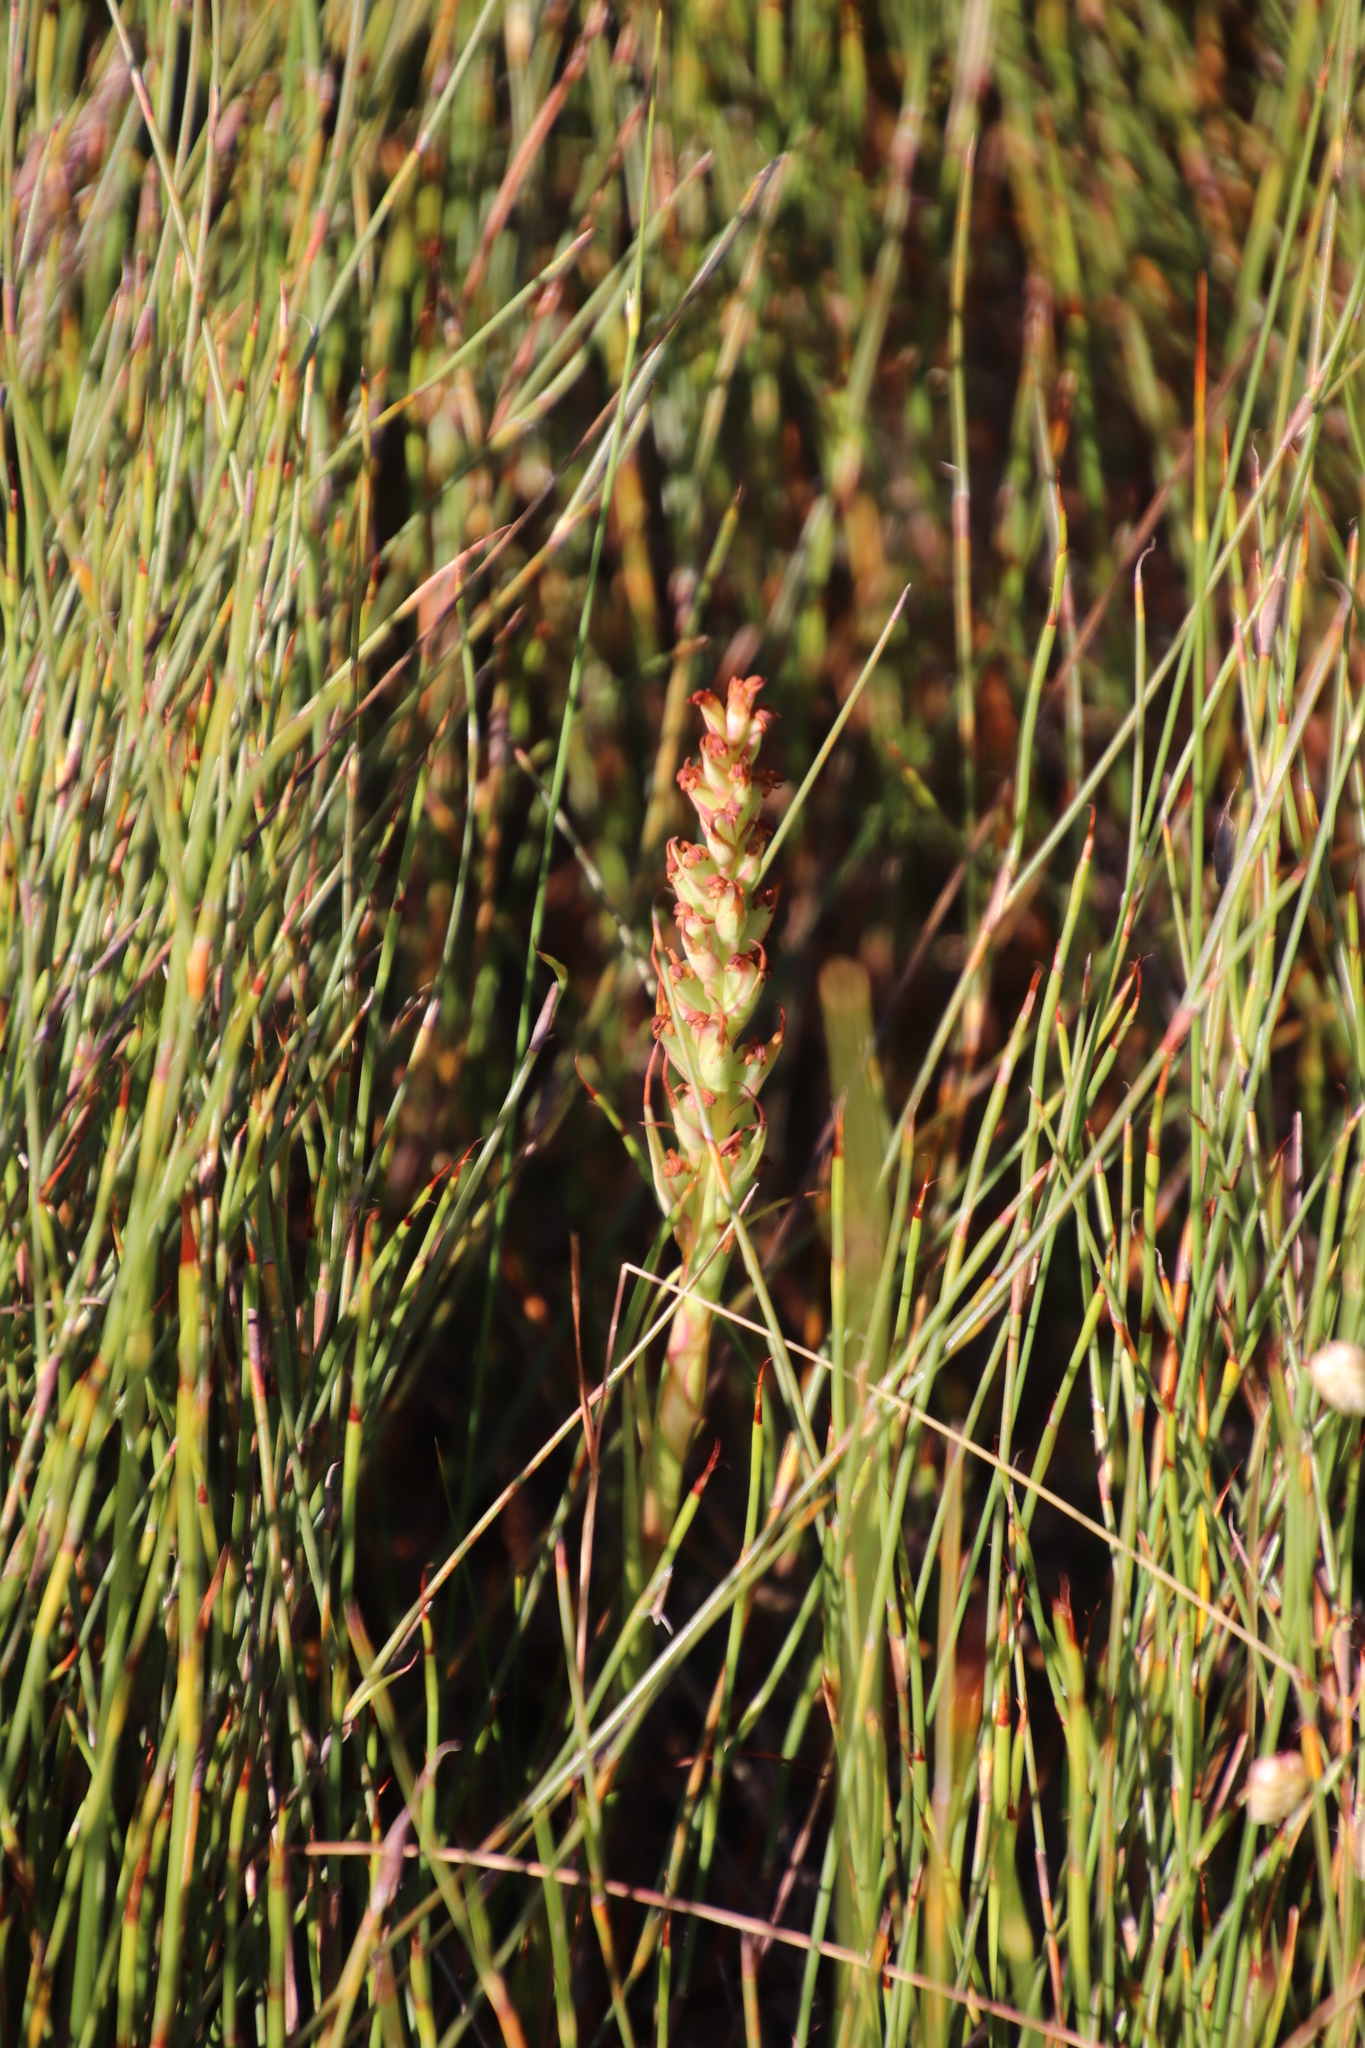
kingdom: Plantae
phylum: Tracheophyta
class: Liliopsida
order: Asparagales
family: Orchidaceae
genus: Disa
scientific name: Disa bracteata
